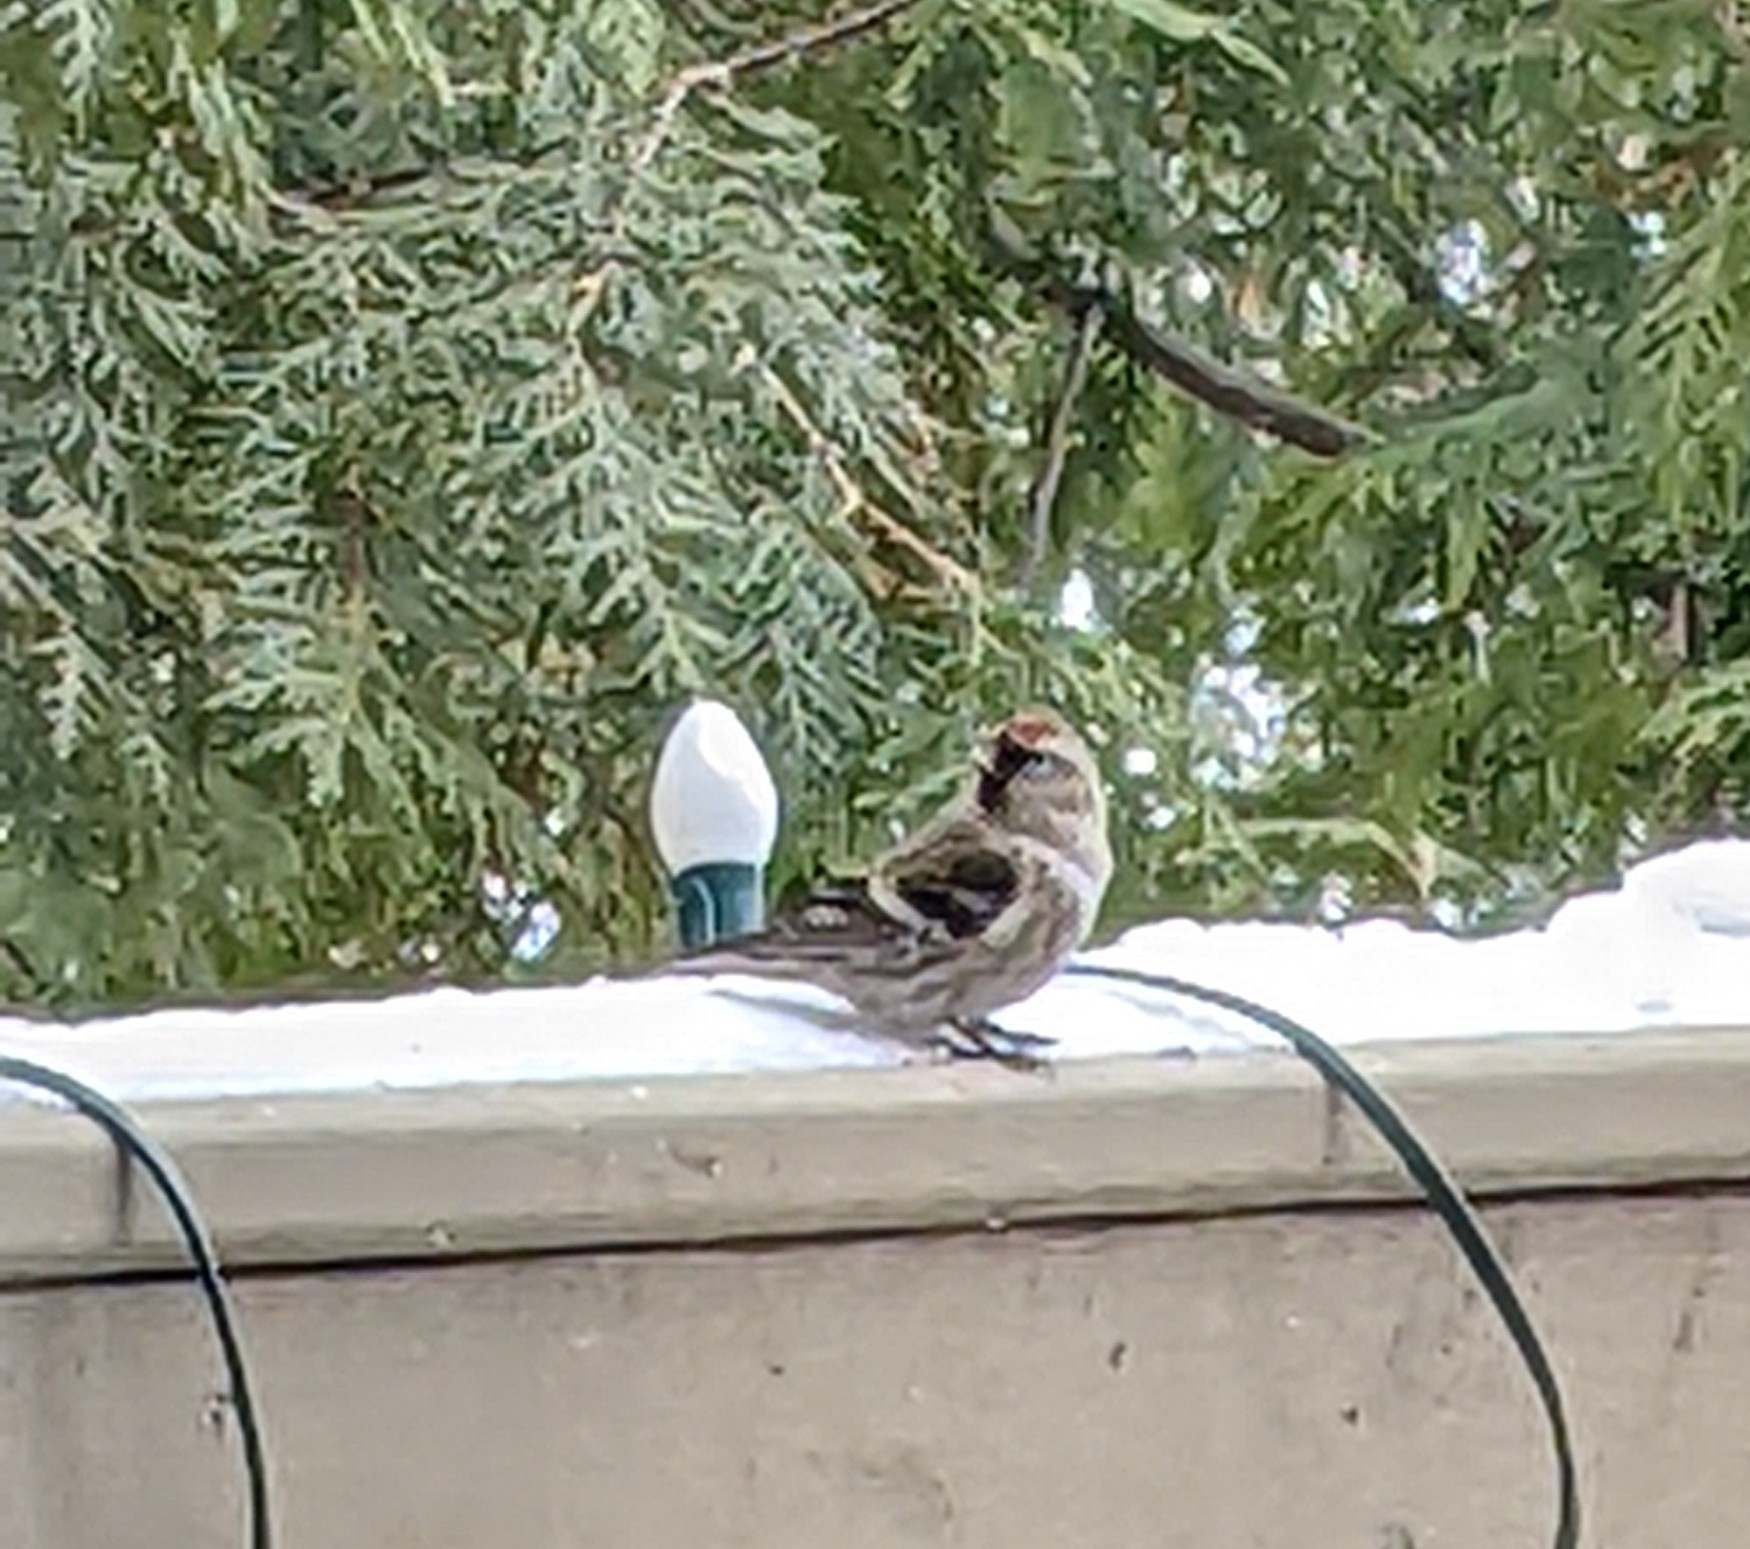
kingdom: Animalia
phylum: Chordata
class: Aves
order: Passeriformes
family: Fringillidae
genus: Acanthis
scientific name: Acanthis flammea
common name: Common redpoll
